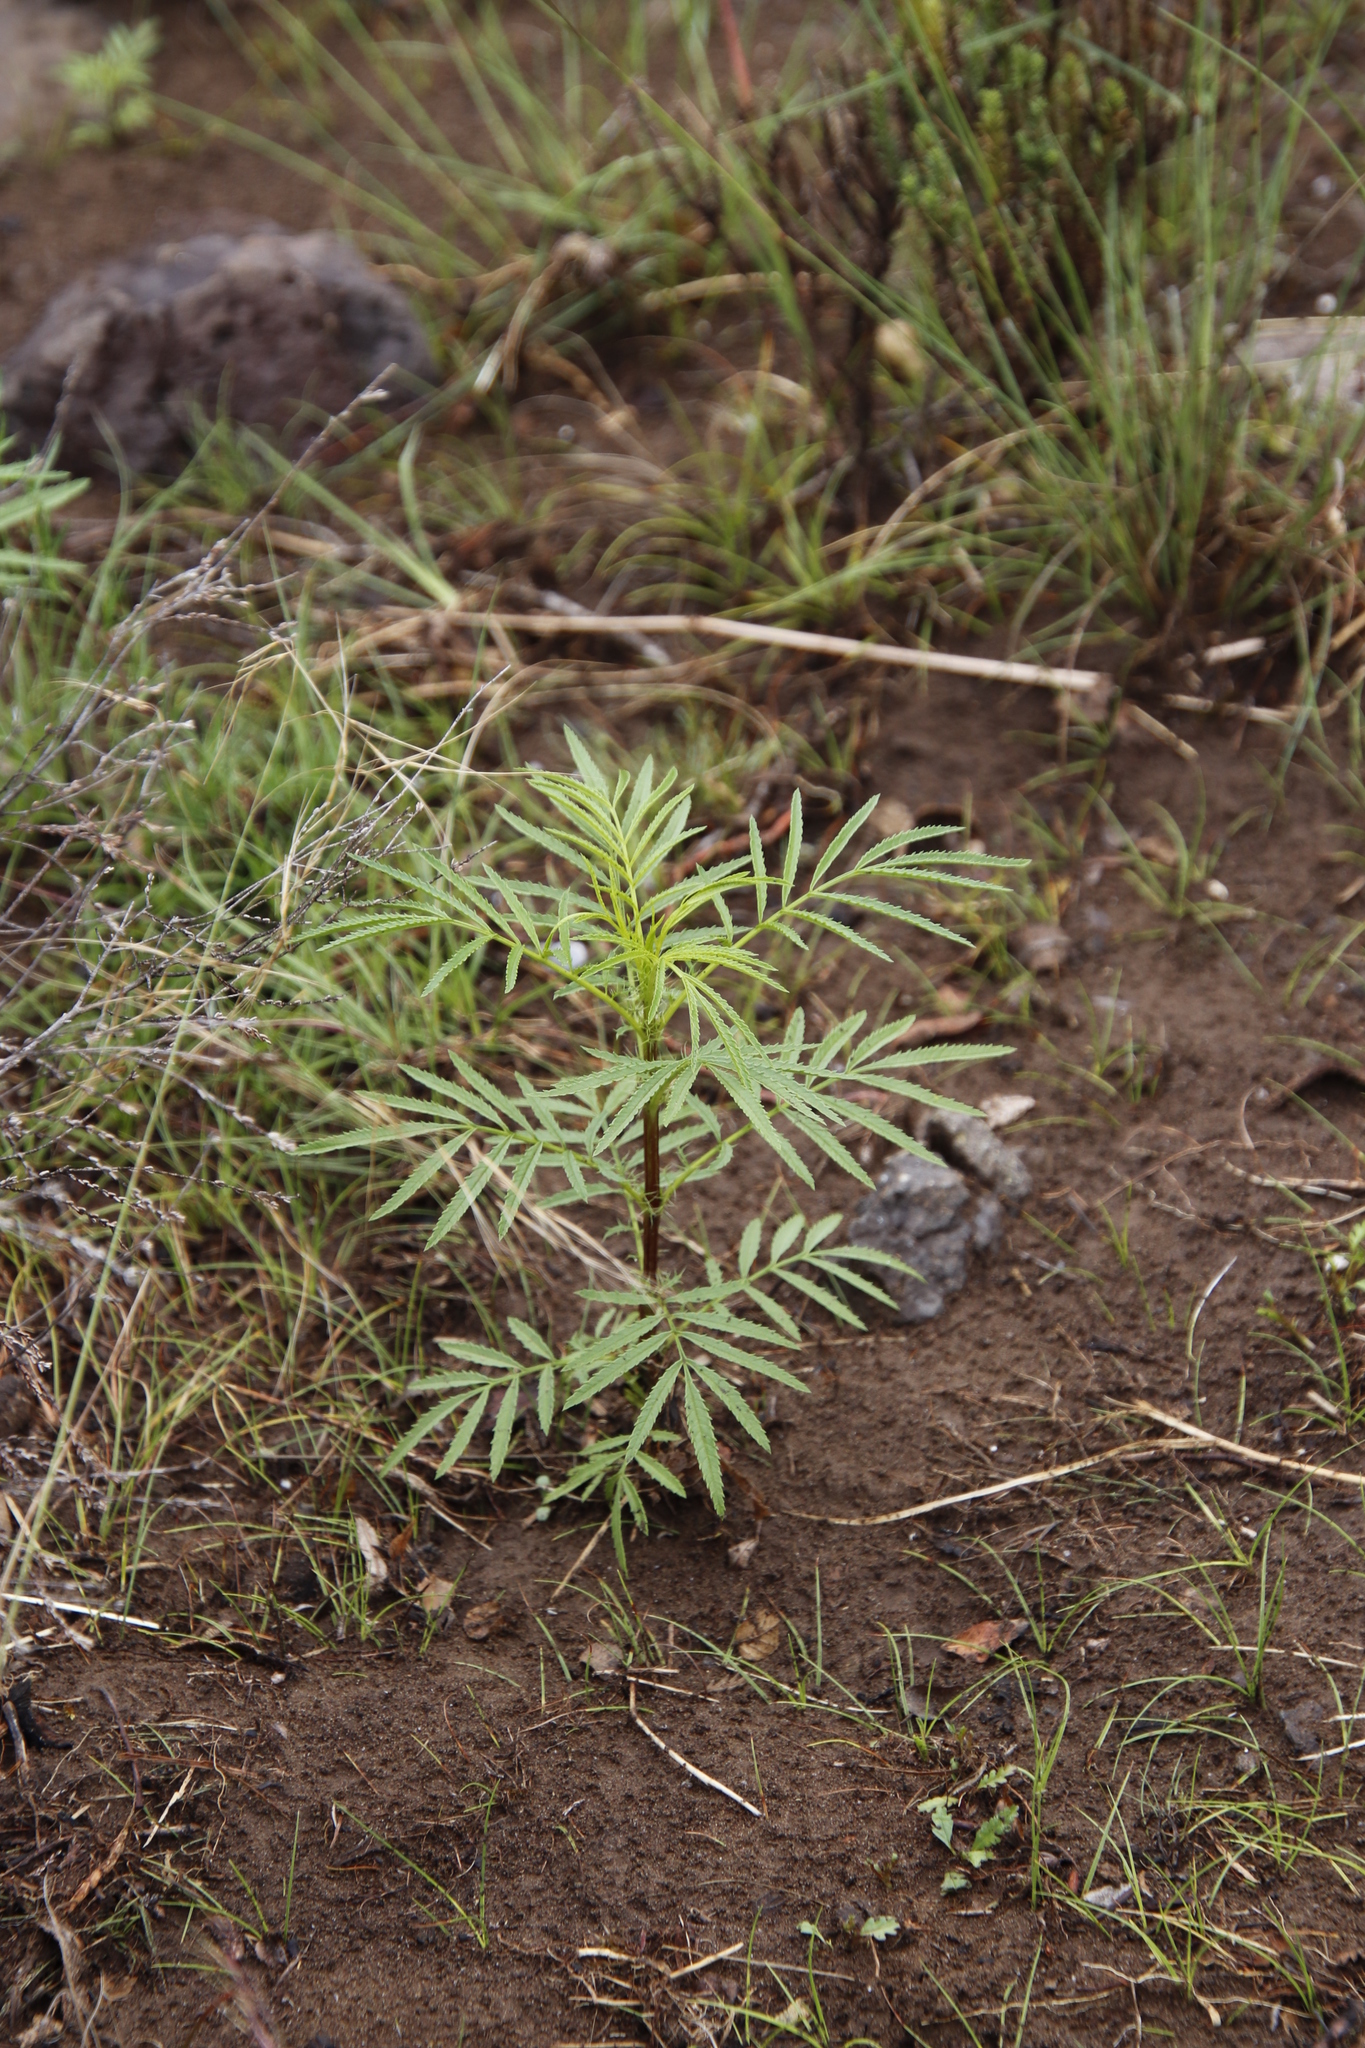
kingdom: Plantae
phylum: Tracheophyta
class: Magnoliopsida
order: Asterales
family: Asteraceae
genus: Tagetes
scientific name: Tagetes minuta
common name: Muster john henry
